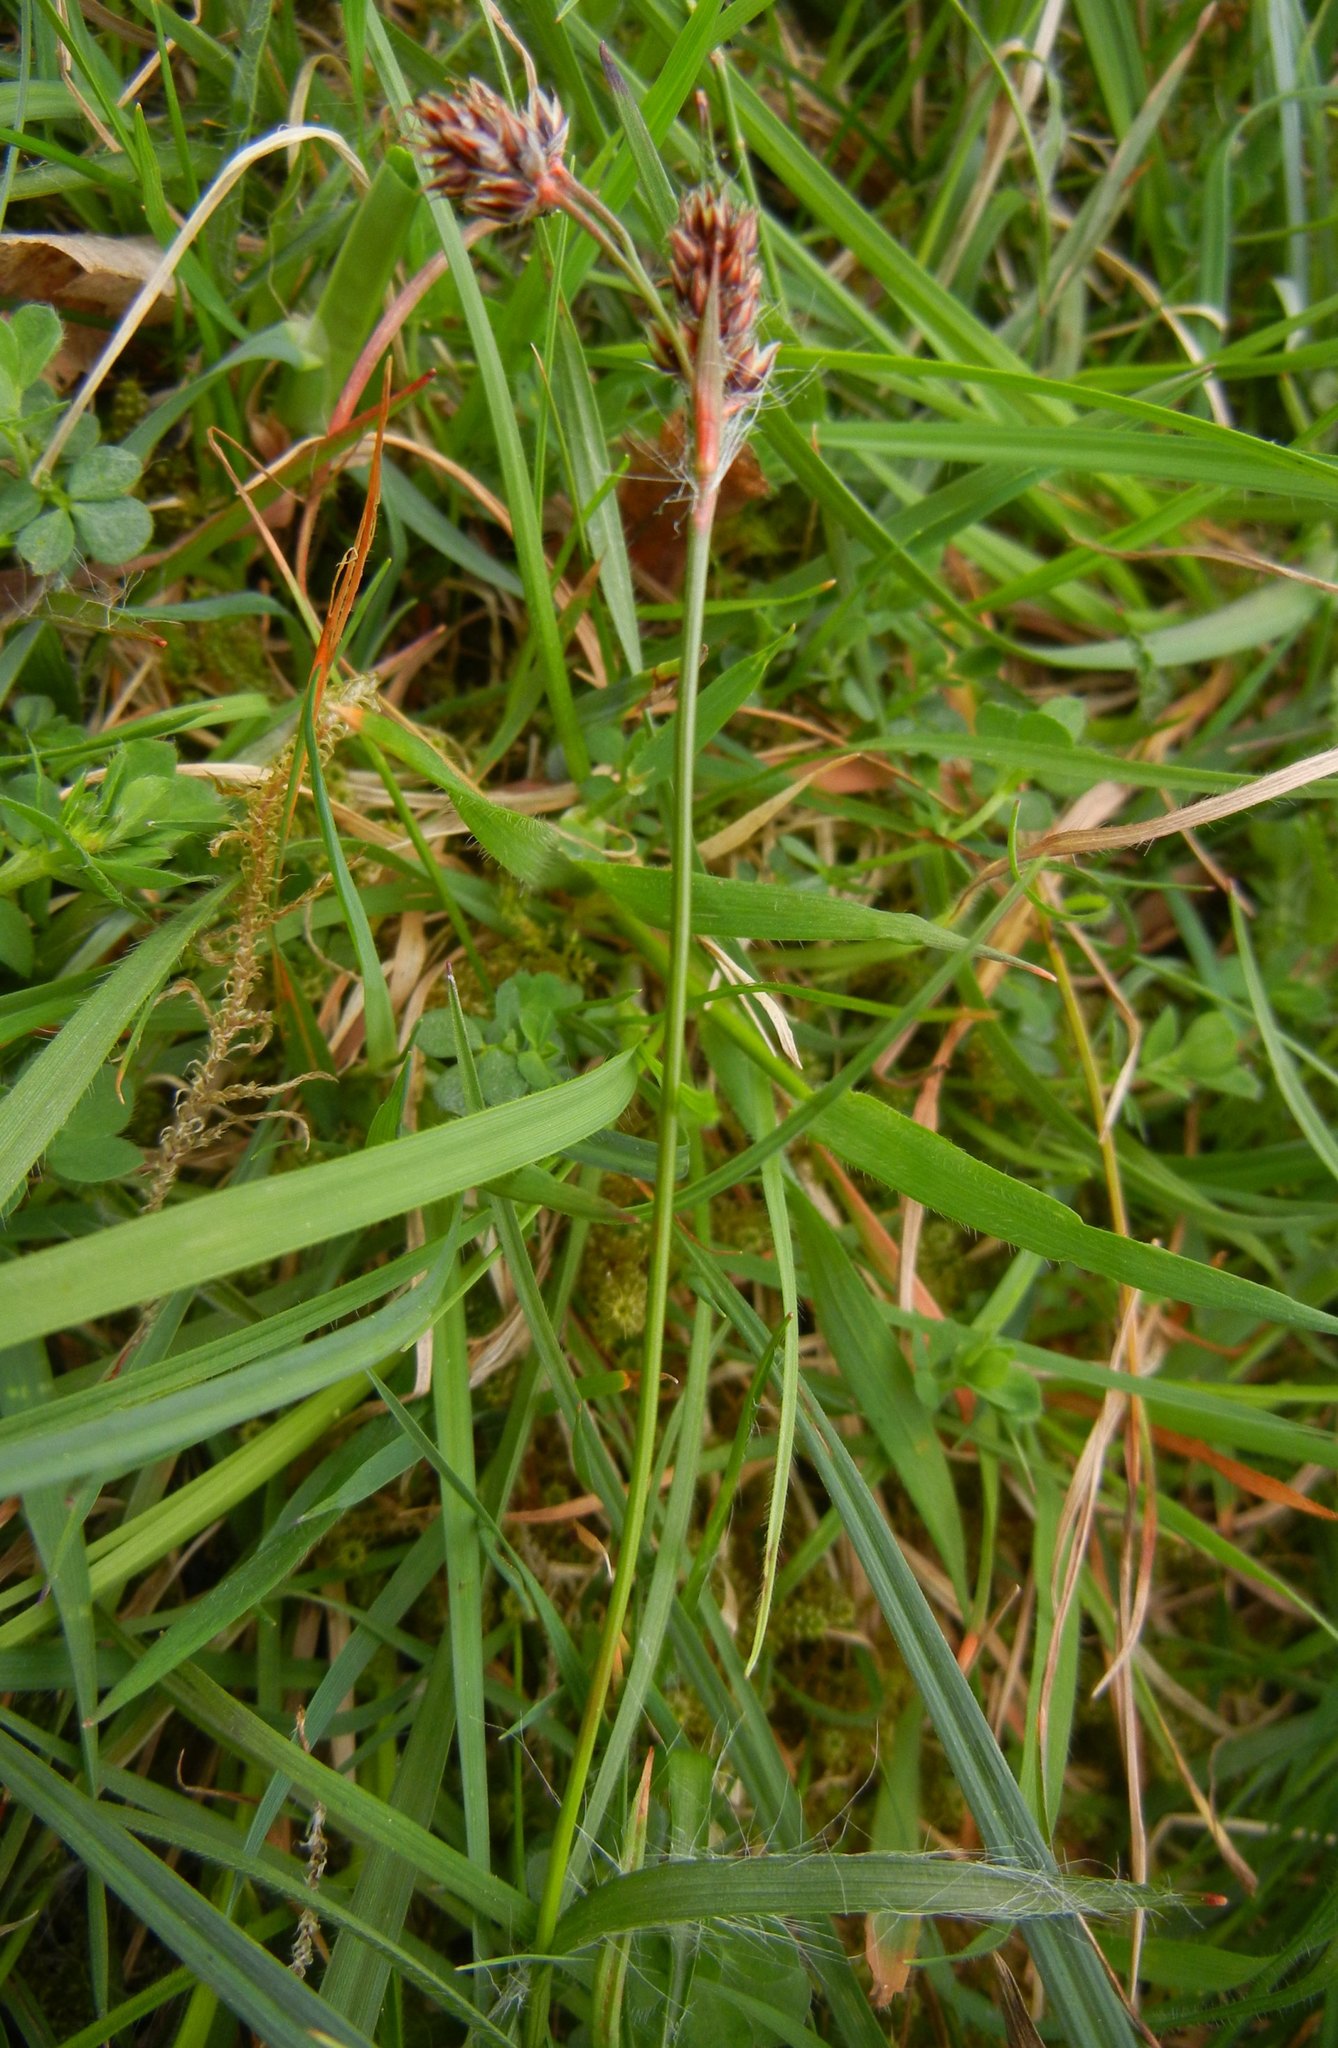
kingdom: Plantae
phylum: Tracheophyta
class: Liliopsida
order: Poales
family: Juncaceae
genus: Luzula
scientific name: Luzula campestris
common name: Field wood-rush
